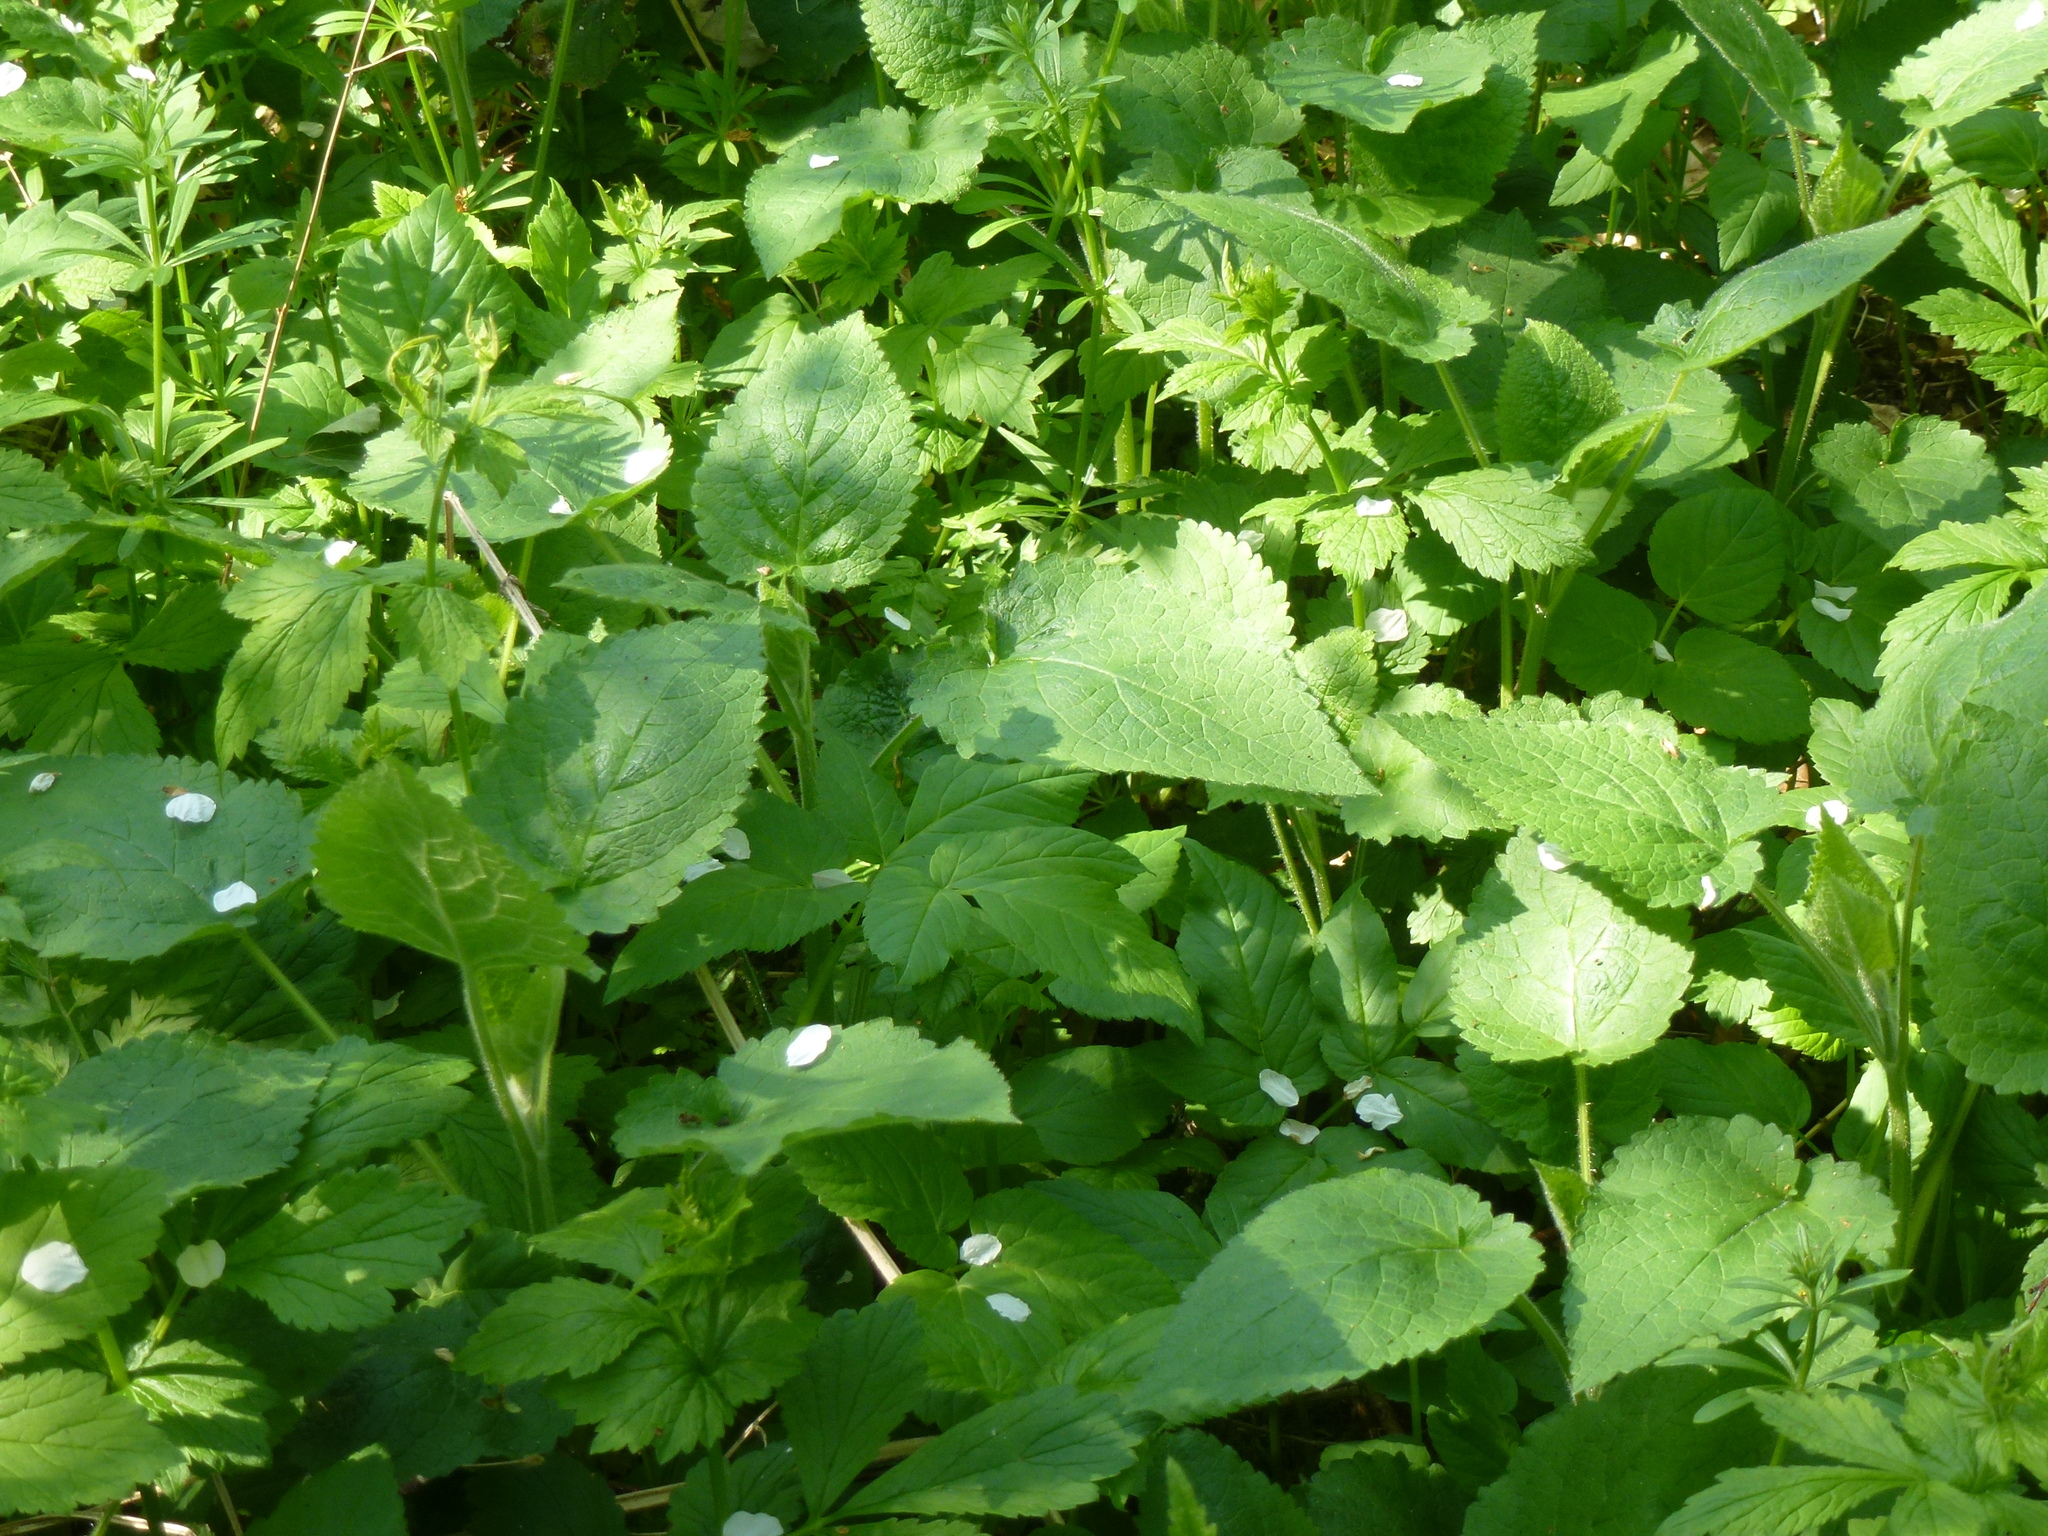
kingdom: Plantae
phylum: Tracheophyta
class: Magnoliopsida
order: Apiales
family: Apiaceae
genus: Aegopodium
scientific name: Aegopodium podagraria
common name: Ground-elder
